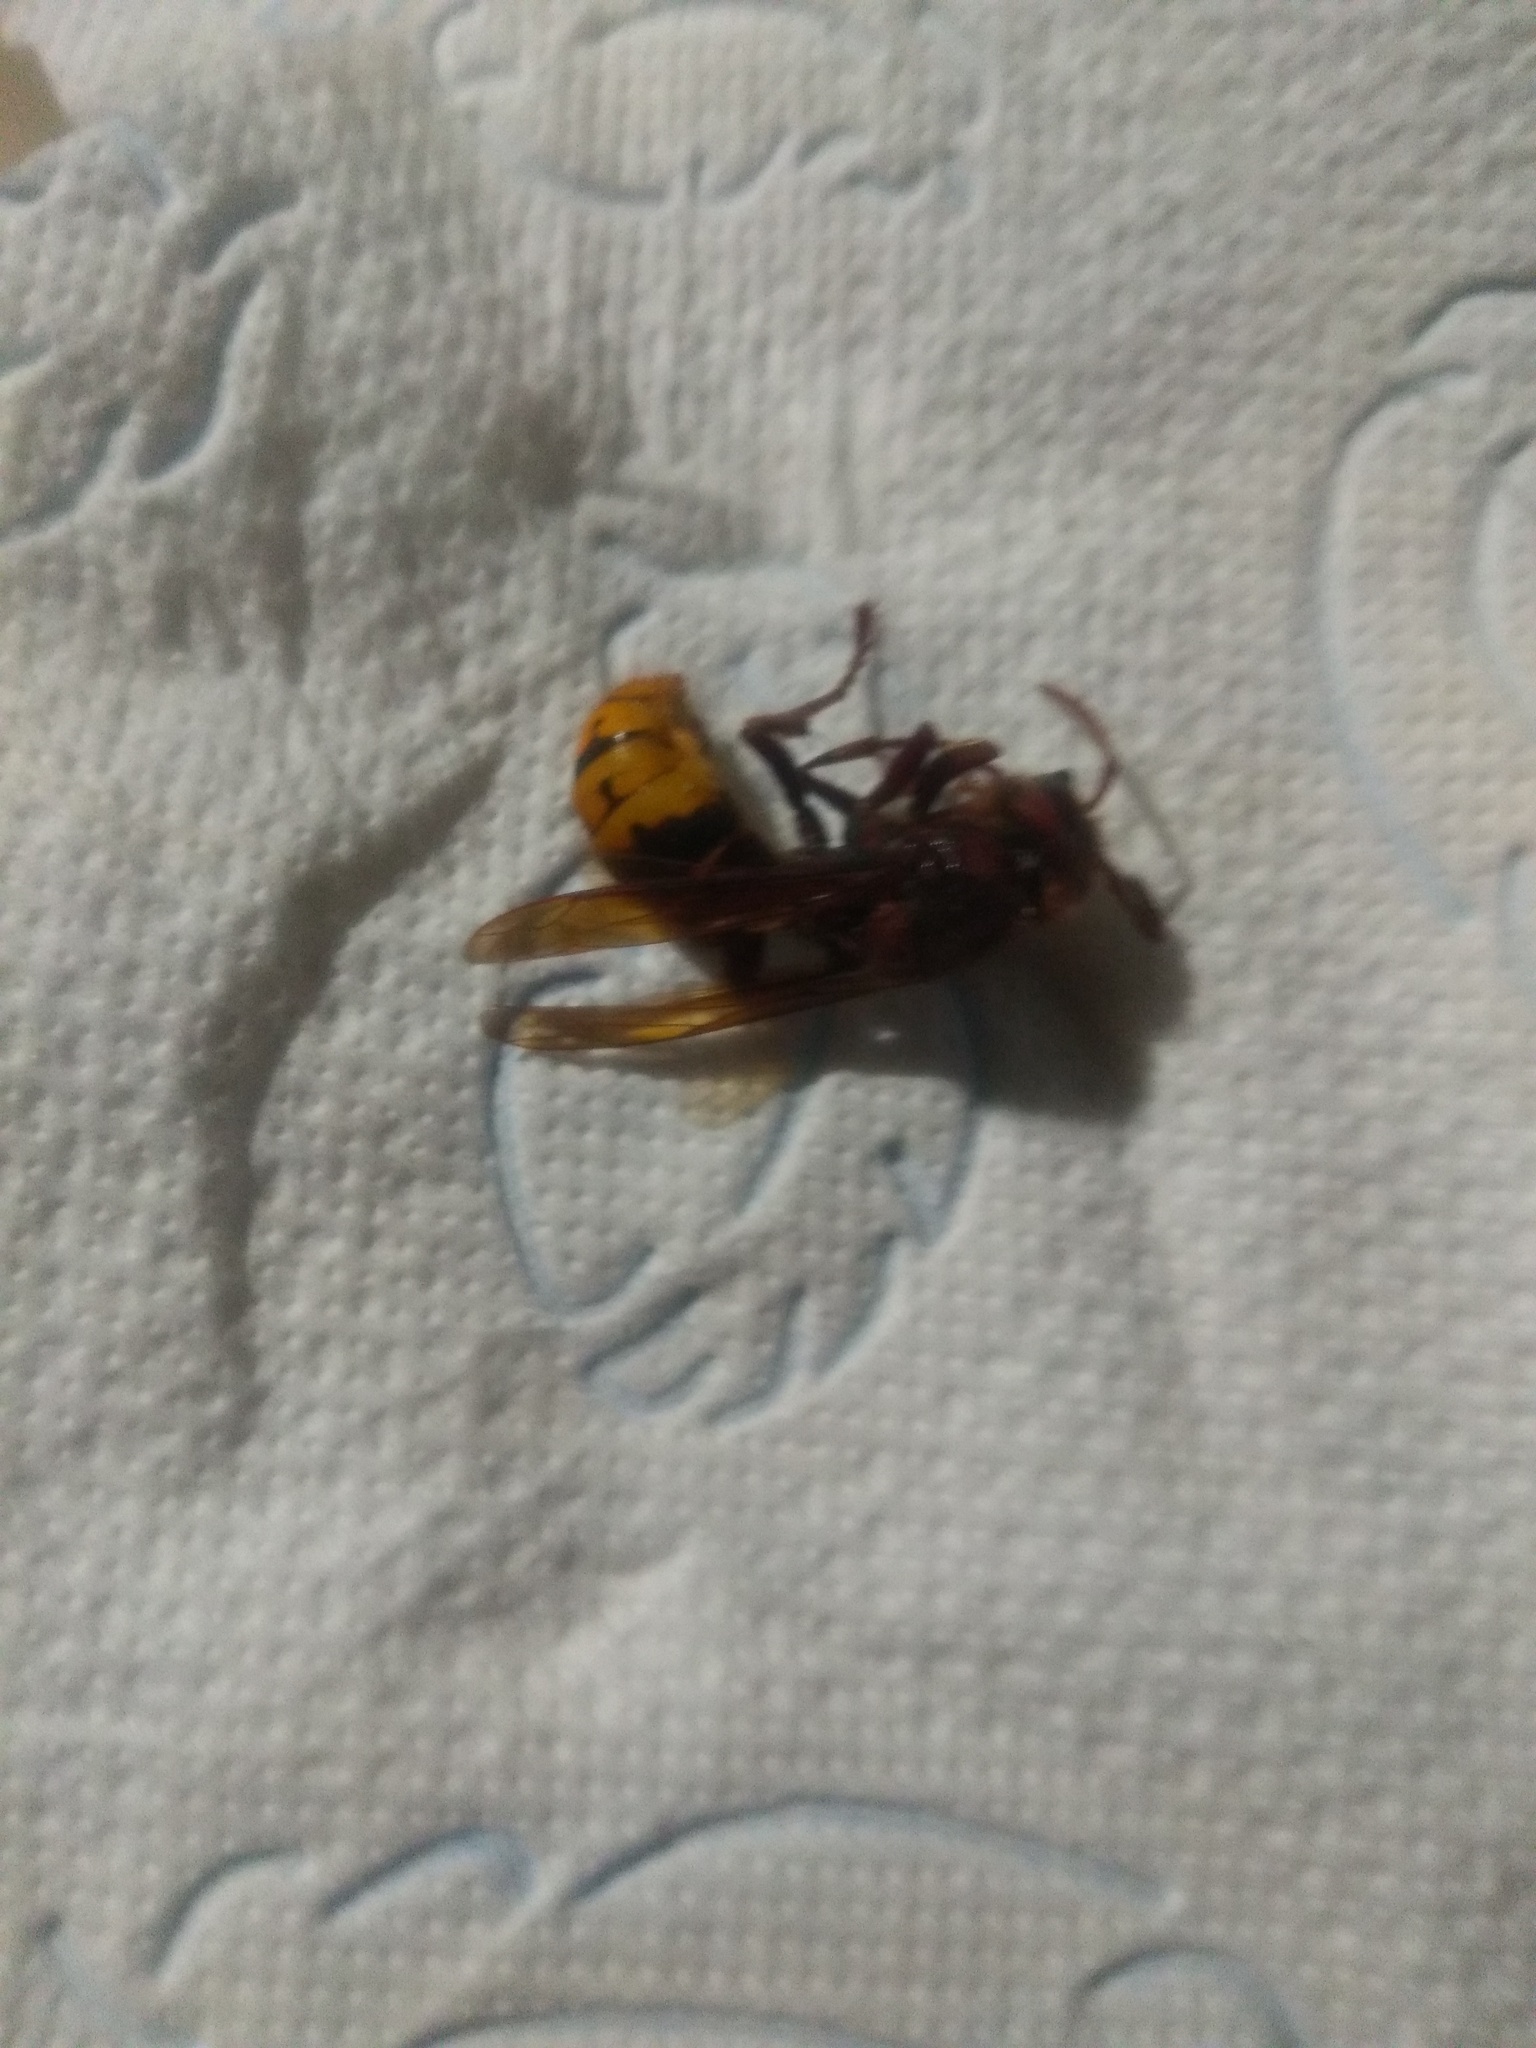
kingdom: Animalia
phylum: Arthropoda
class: Insecta
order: Hymenoptera
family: Vespidae
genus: Vespa
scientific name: Vespa crabro
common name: Hornet
